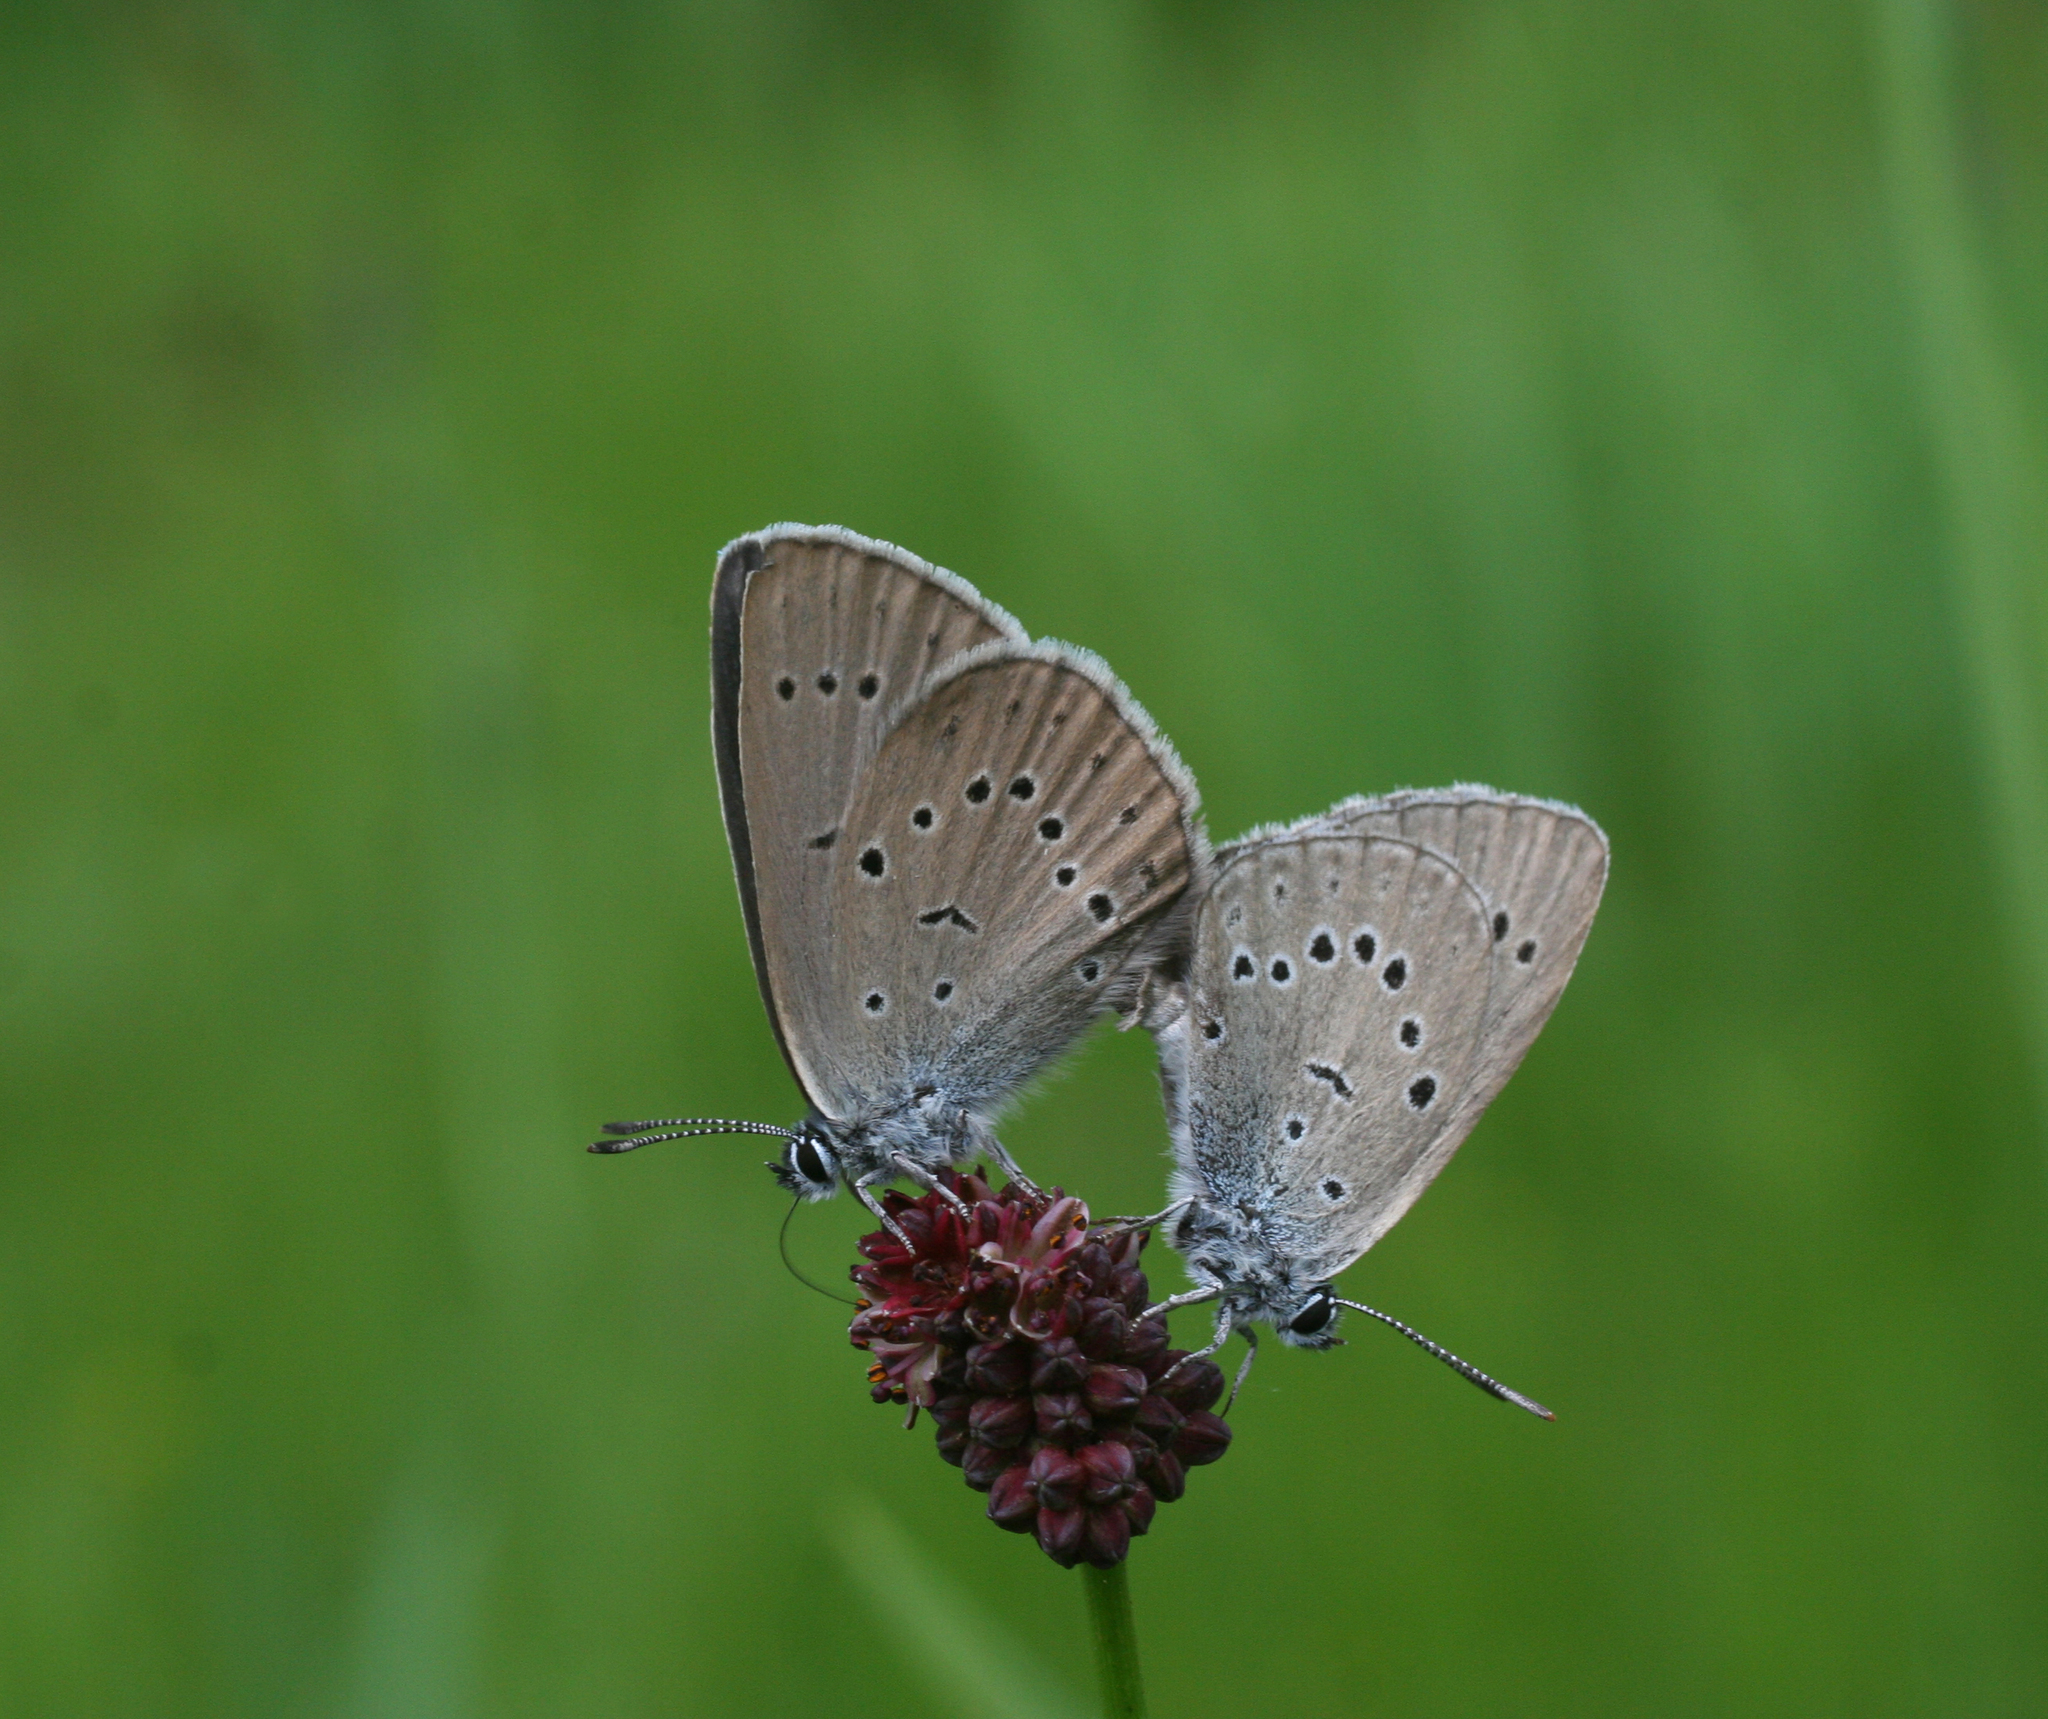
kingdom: Animalia
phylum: Arthropoda
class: Insecta
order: Lepidoptera
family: Lycaenidae
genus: Phengaris
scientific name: Phengaris teleius
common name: Scarce large blue
